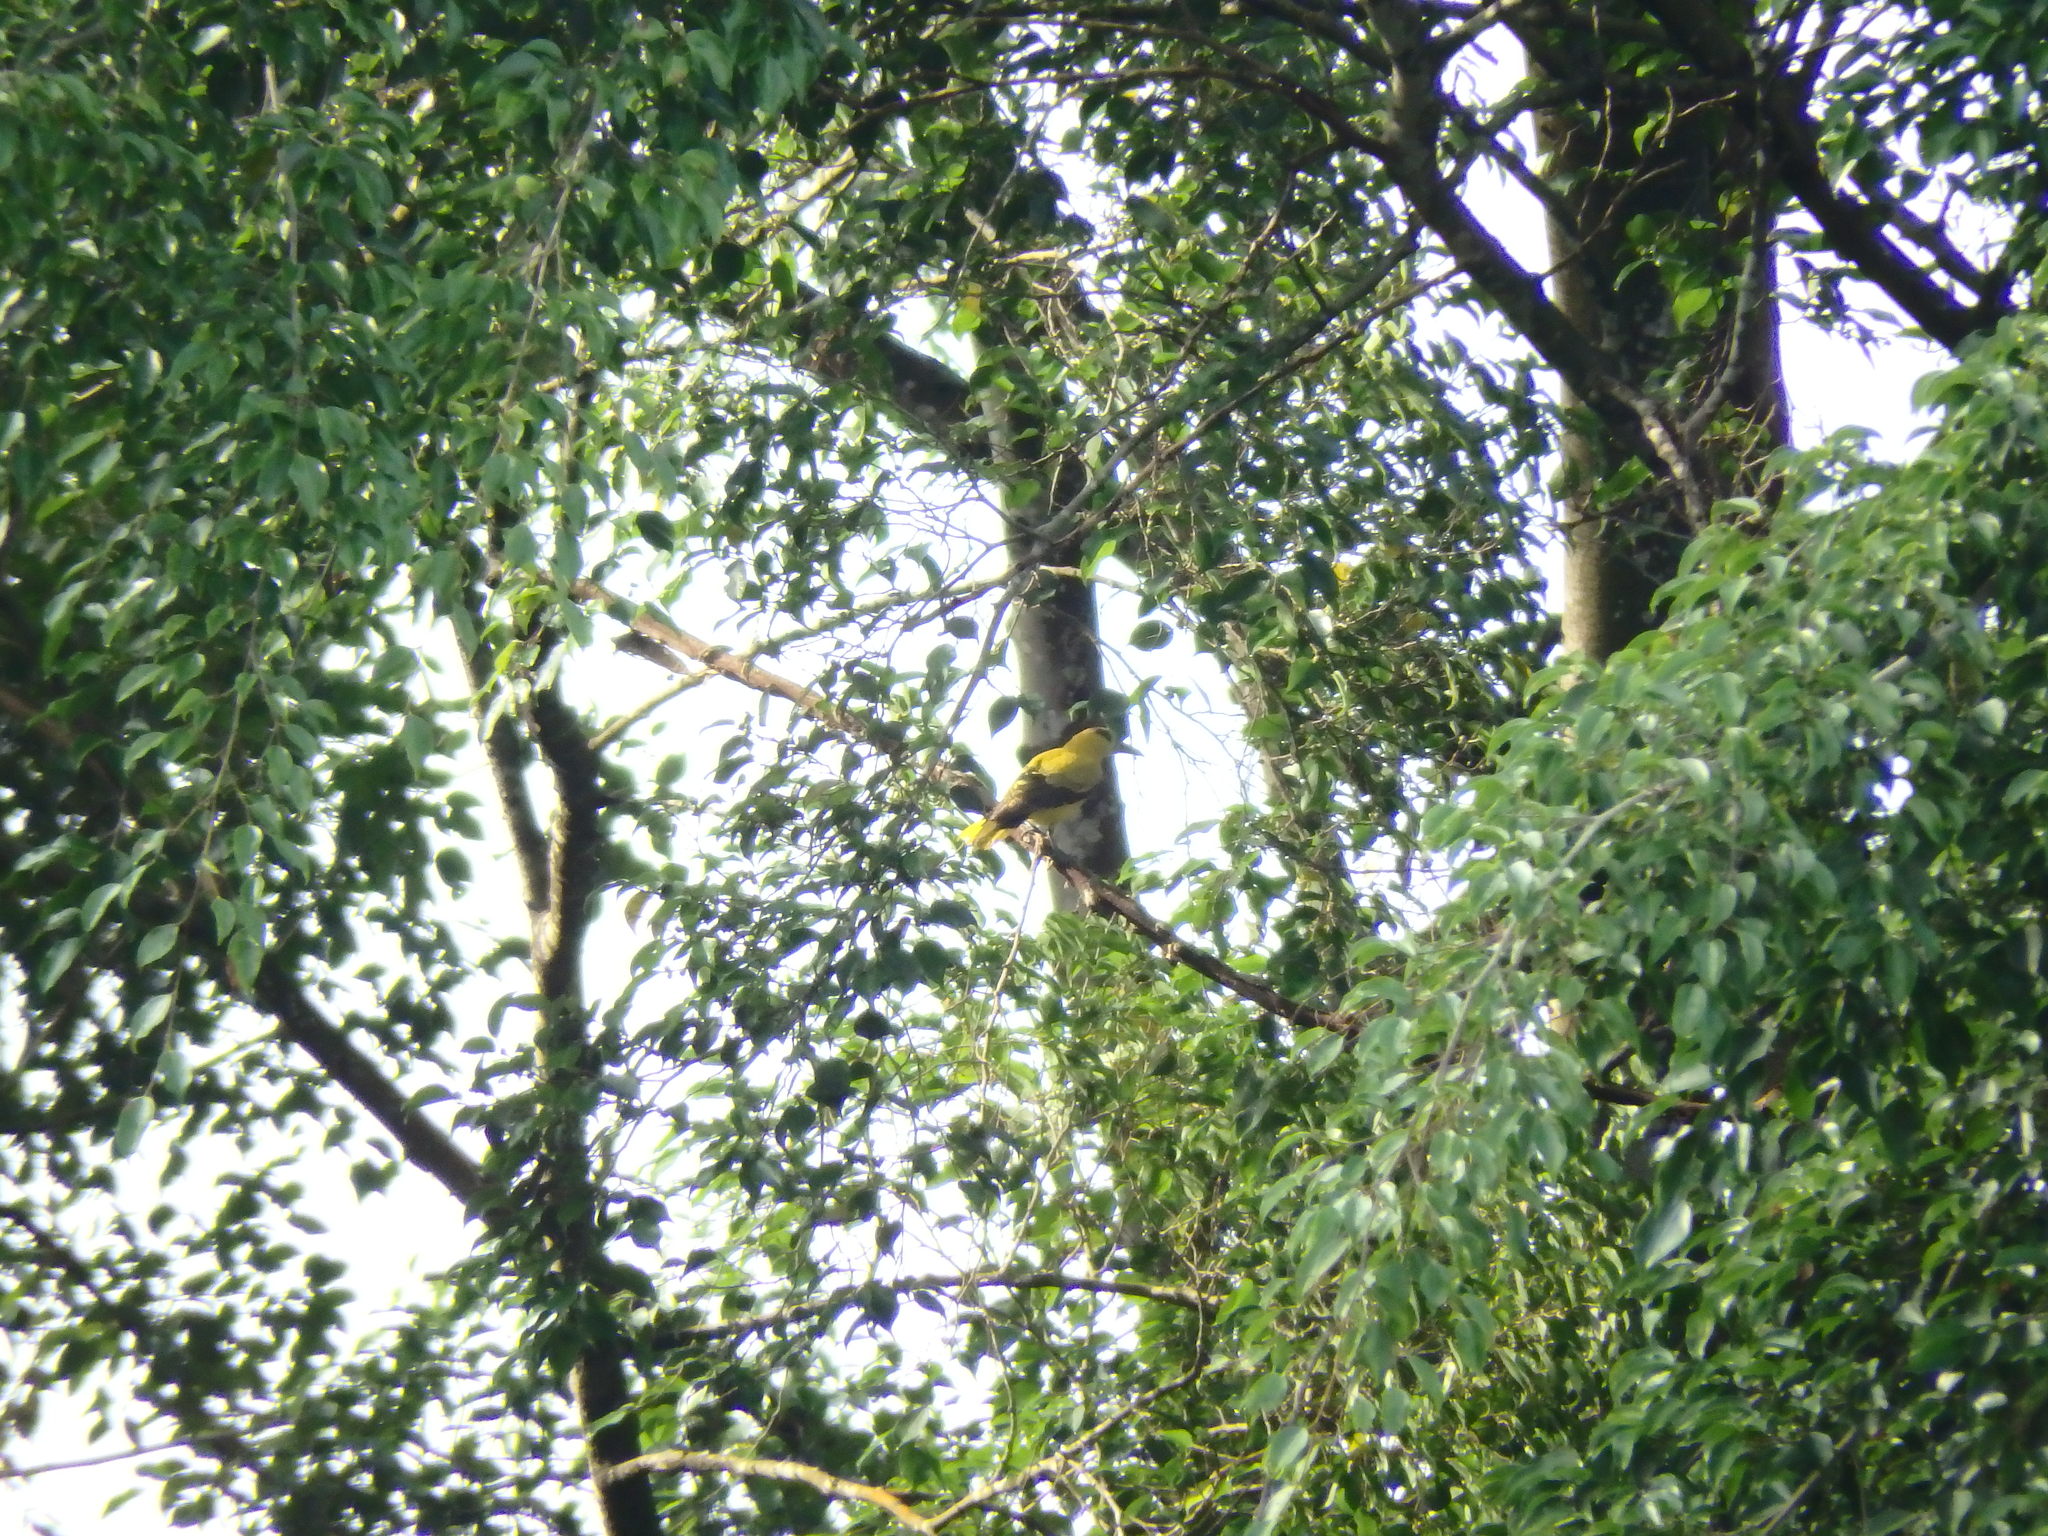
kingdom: Animalia
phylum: Chordata
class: Aves
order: Passeriformes
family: Oriolidae
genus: Oriolus
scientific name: Oriolus chinensis
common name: Black-naped oriole
